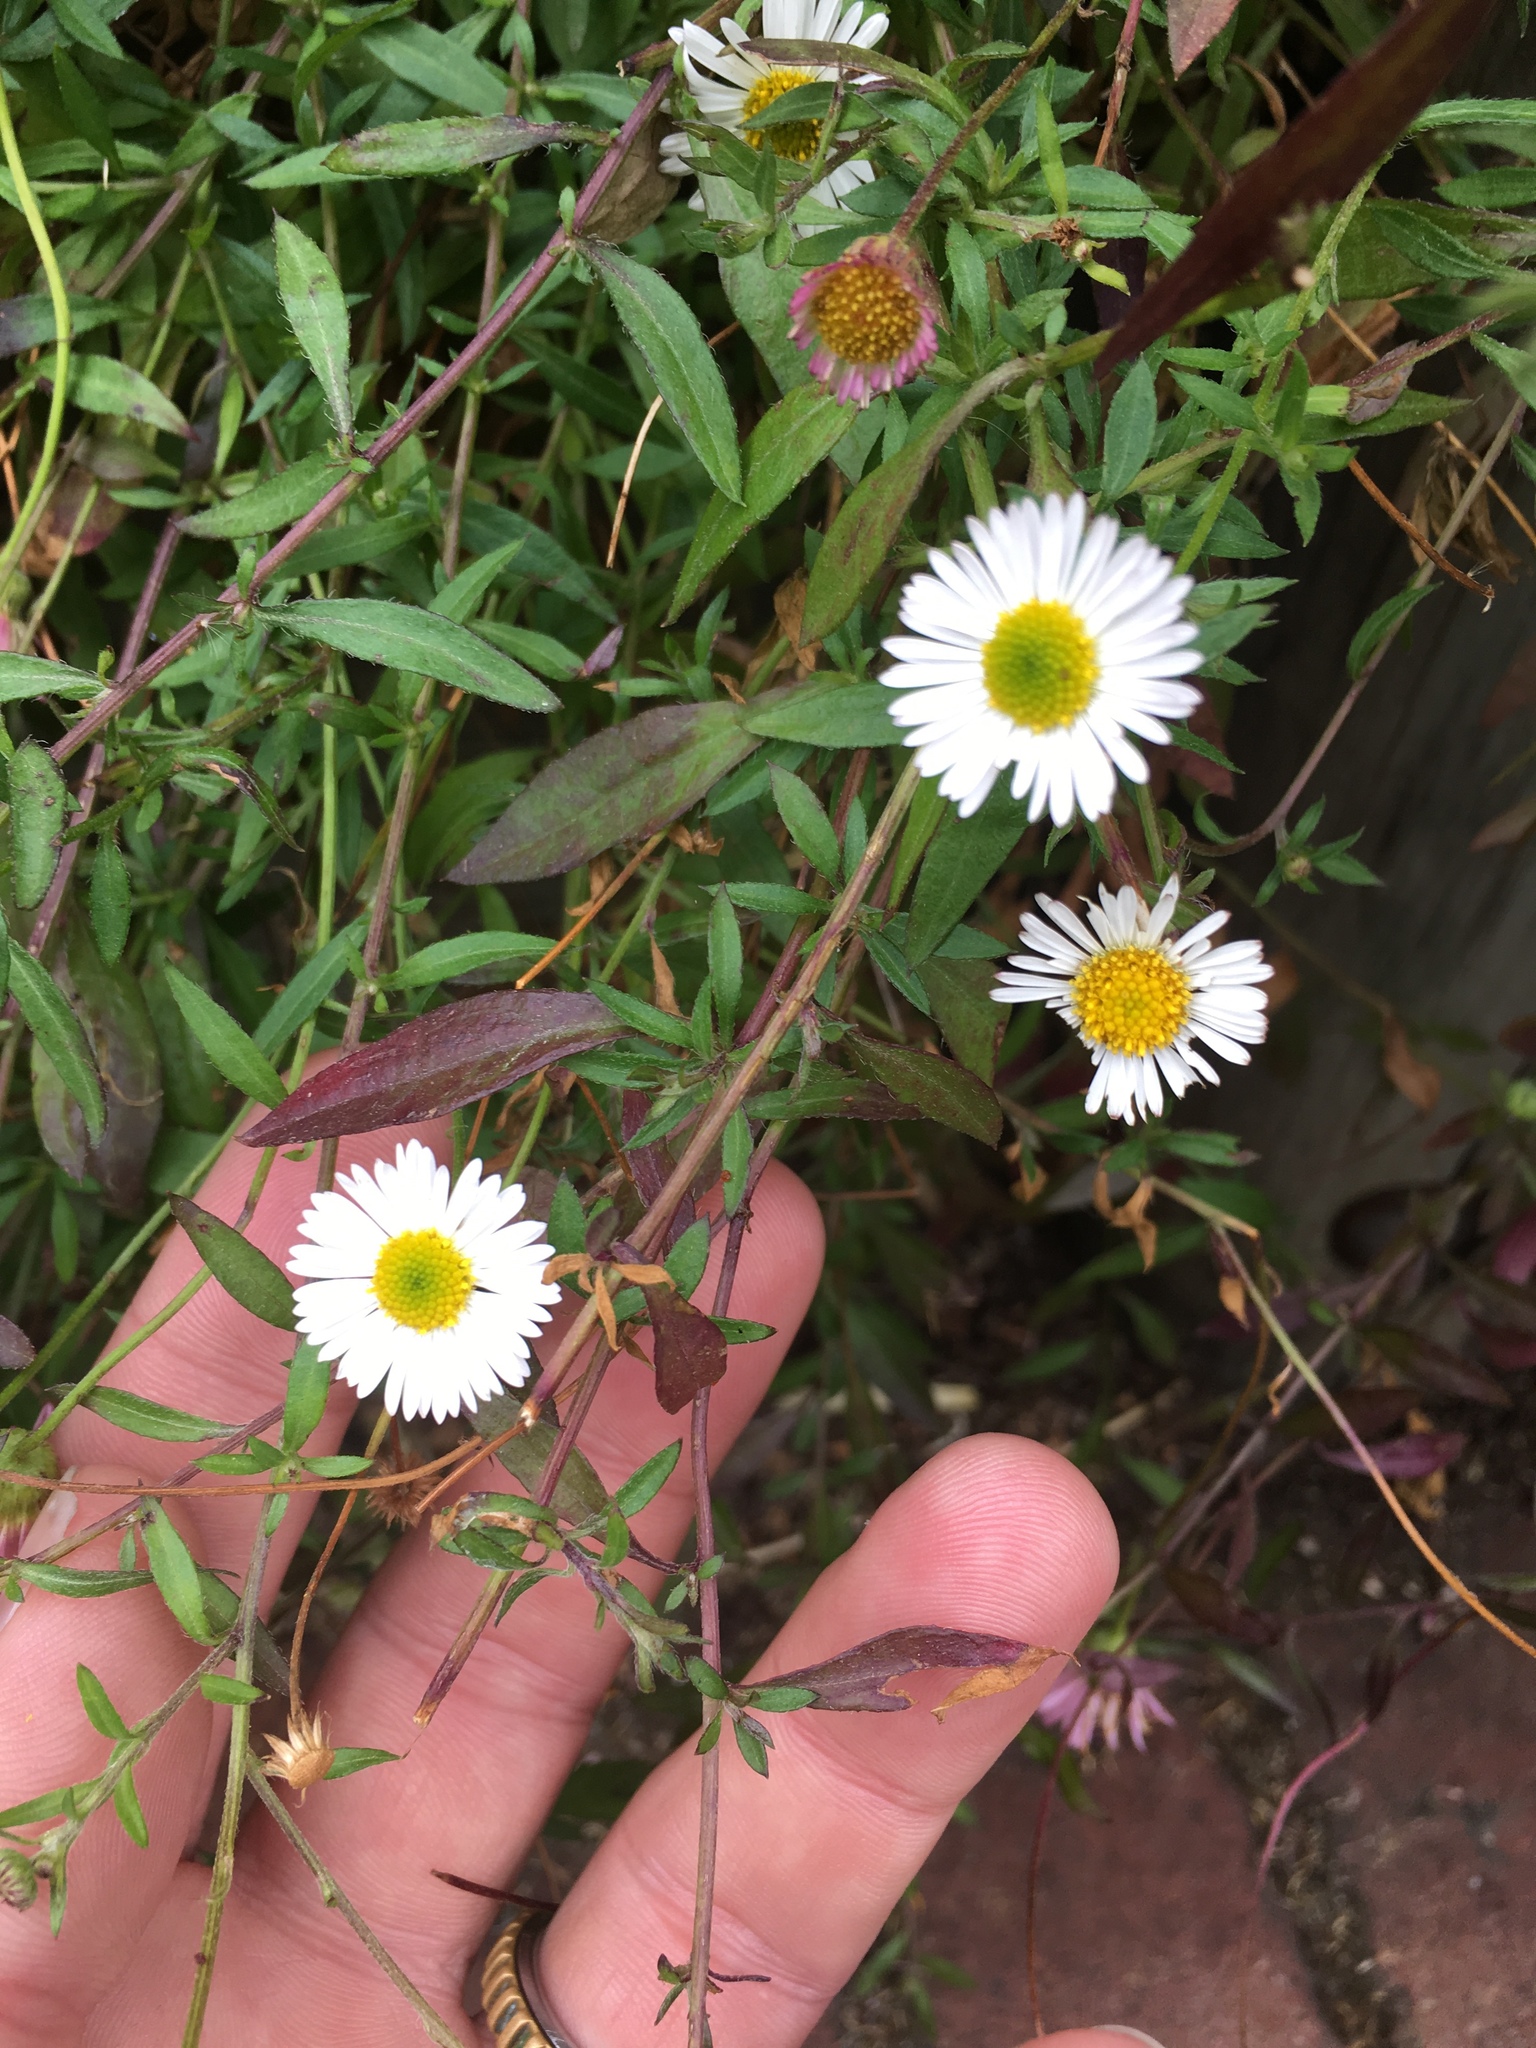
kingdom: Plantae
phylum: Tracheophyta
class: Magnoliopsida
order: Asterales
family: Asteraceae
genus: Erigeron
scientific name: Erigeron karvinskianus
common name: Mexican fleabane
